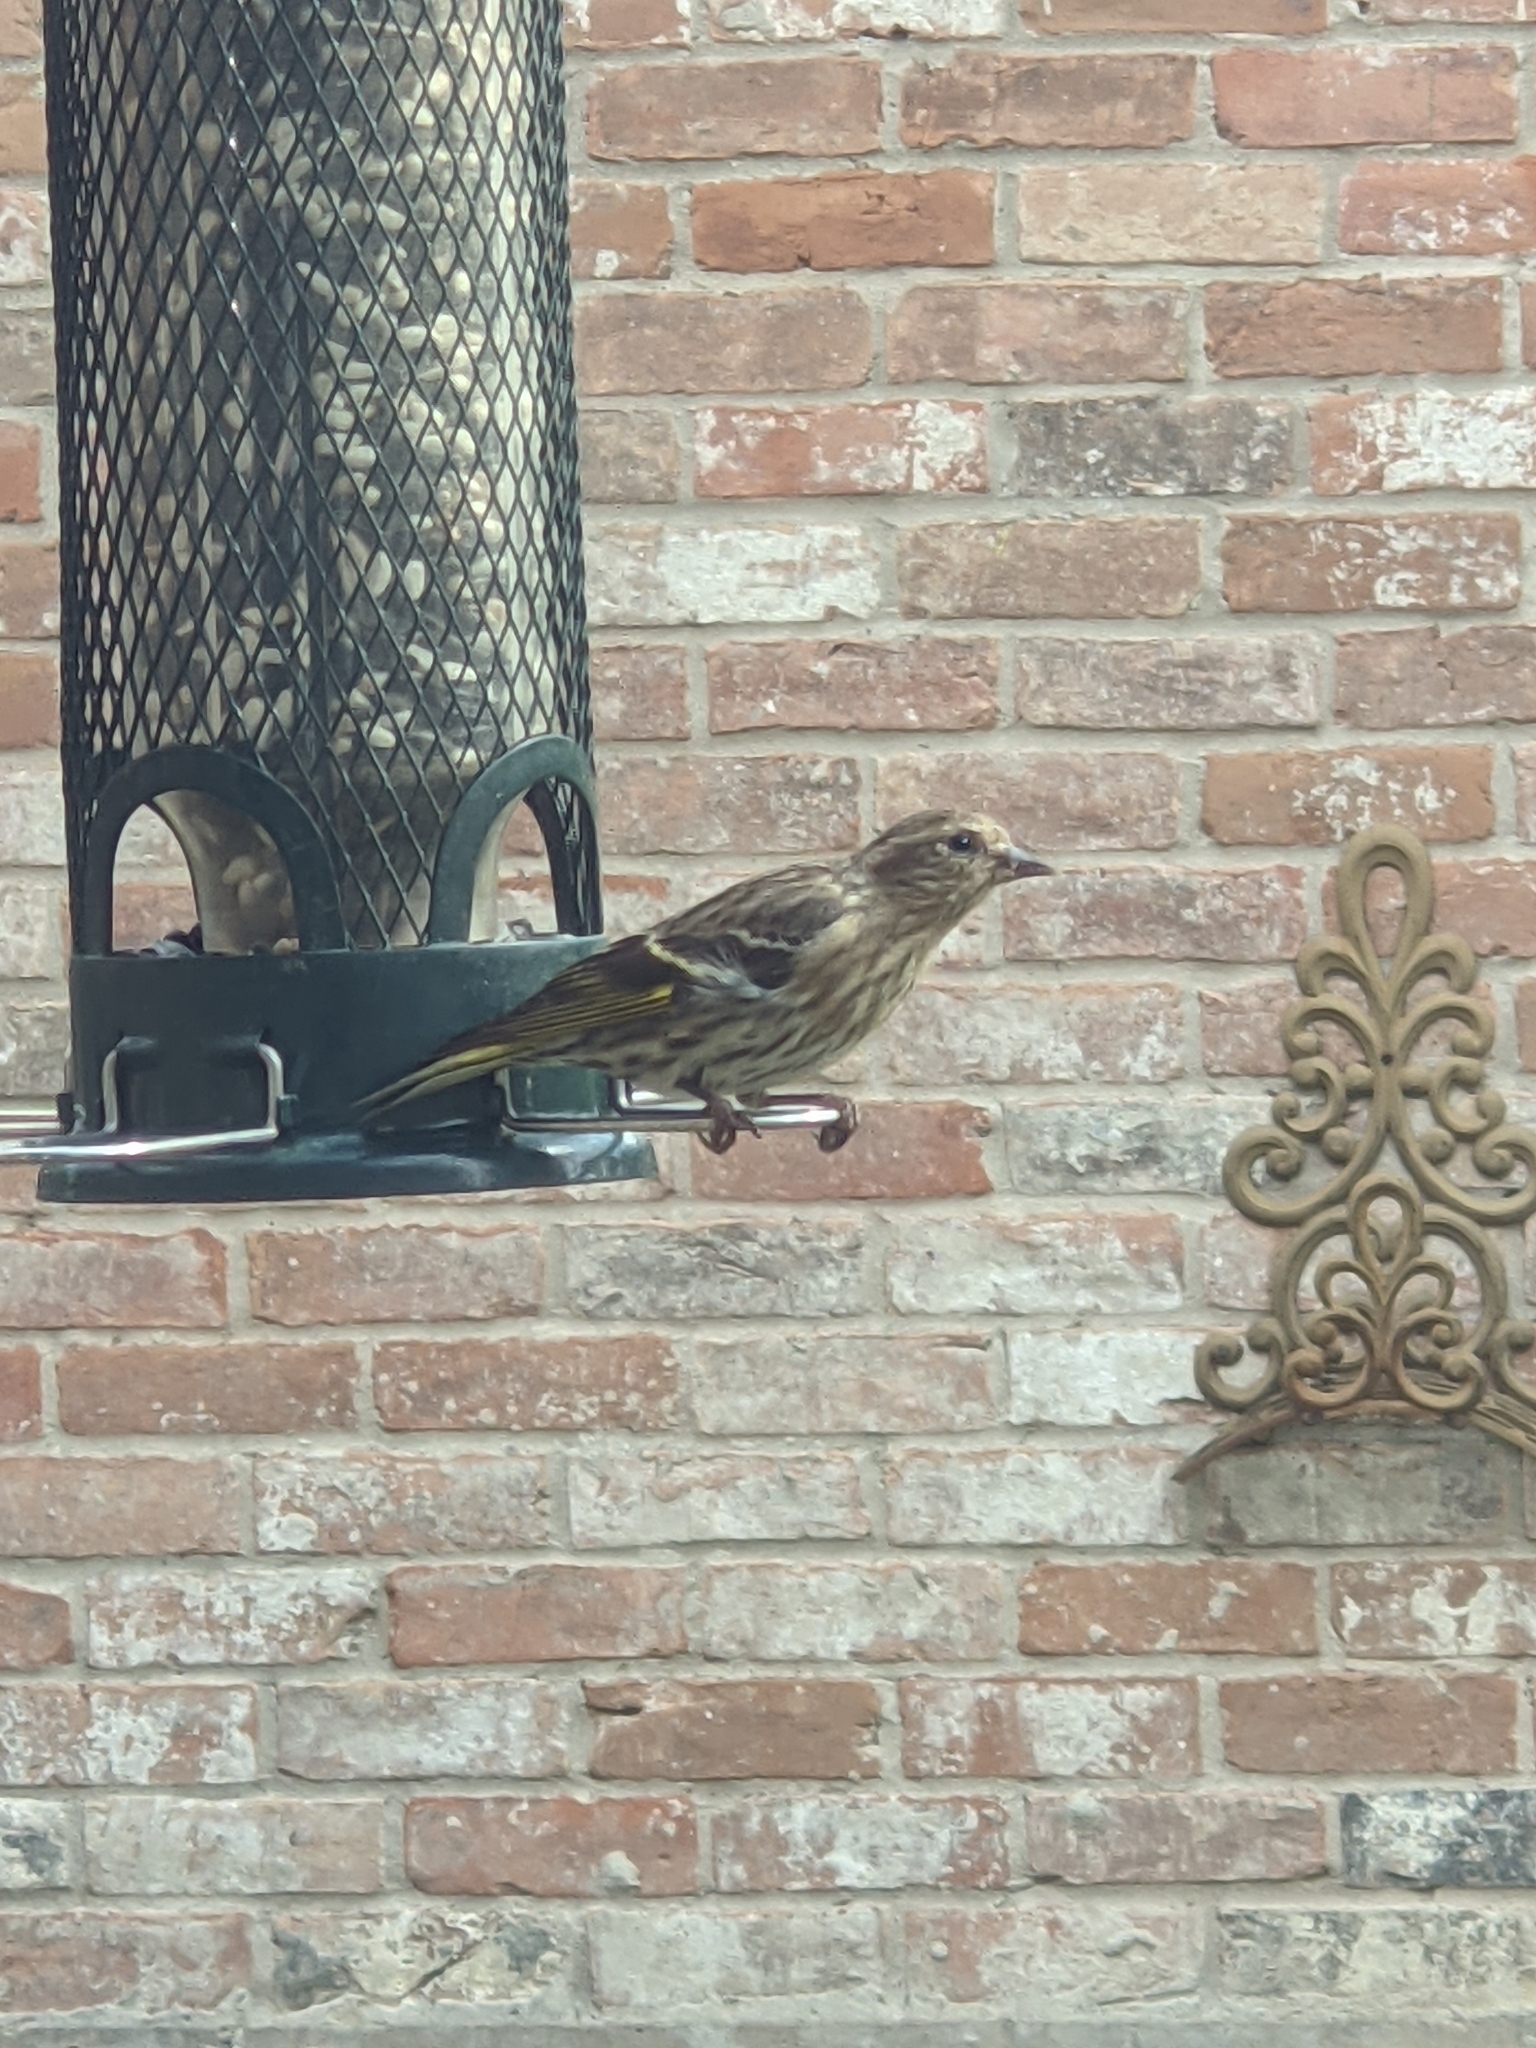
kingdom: Animalia
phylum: Chordata
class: Aves
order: Passeriformes
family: Fringillidae
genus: Spinus
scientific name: Spinus pinus
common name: Pine siskin
